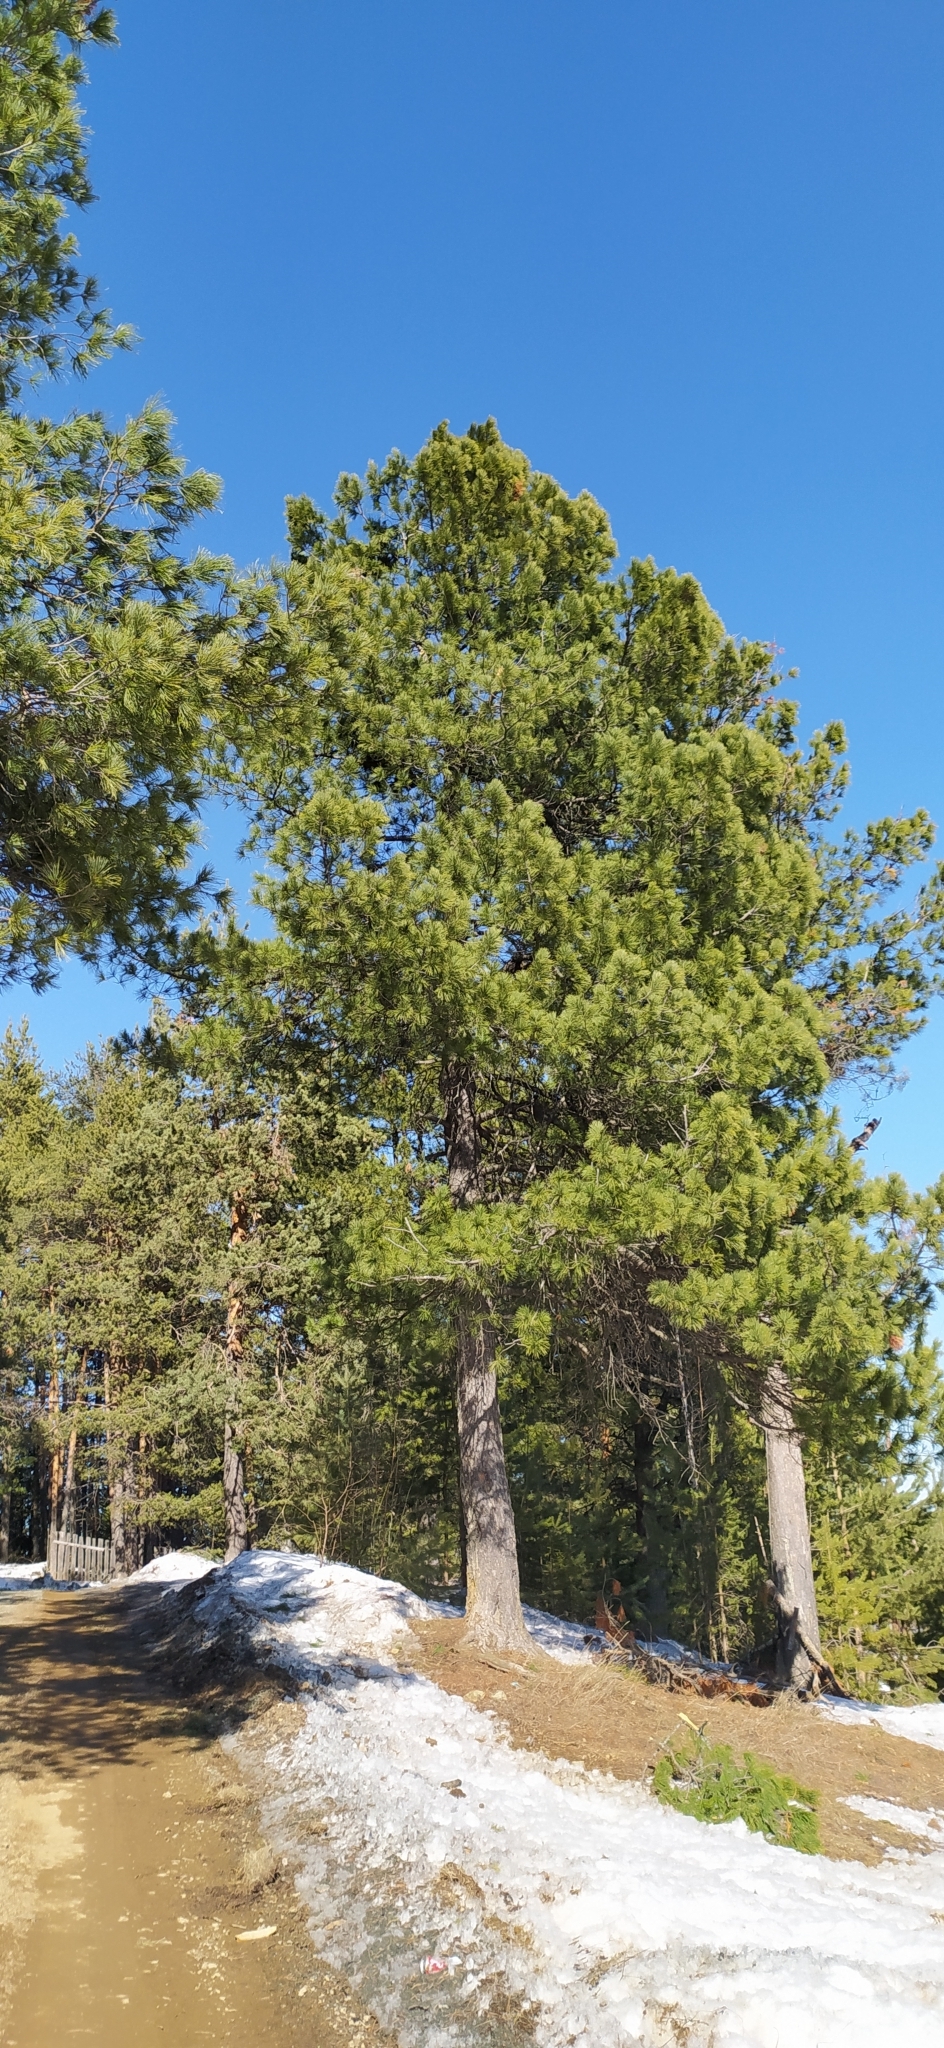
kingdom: Plantae
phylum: Tracheophyta
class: Pinopsida
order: Pinales
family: Pinaceae
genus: Pinus
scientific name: Pinus sibirica
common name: Siberian pine
